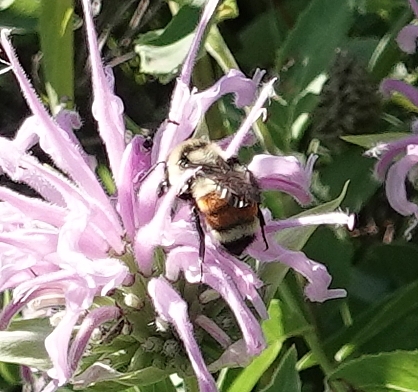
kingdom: Animalia
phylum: Arthropoda
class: Insecta
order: Hymenoptera
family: Apidae
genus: Bombus
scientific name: Bombus huntii
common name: Hunt bumble bee
